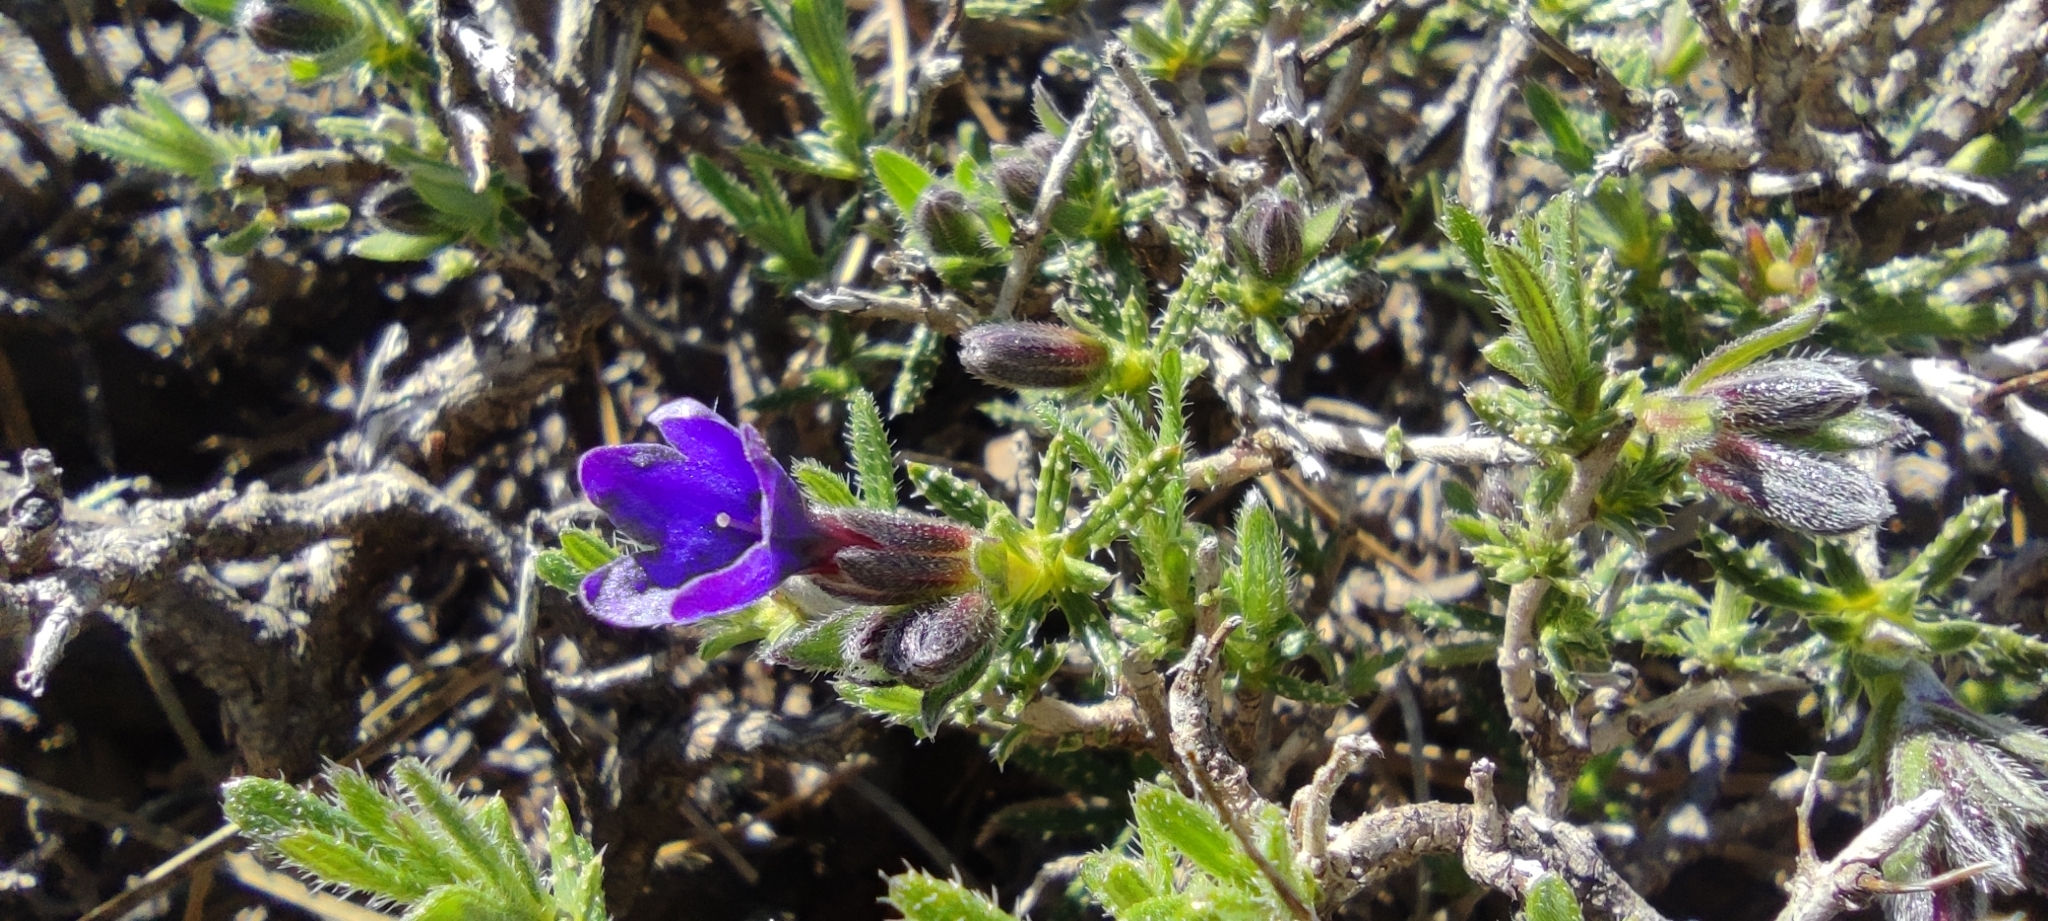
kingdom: Plantae
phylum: Tracheophyta
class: Magnoliopsida
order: Boraginales
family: Boraginaceae
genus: Lithodora
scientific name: Lithodora fruticosa
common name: Shrubby gromwell
